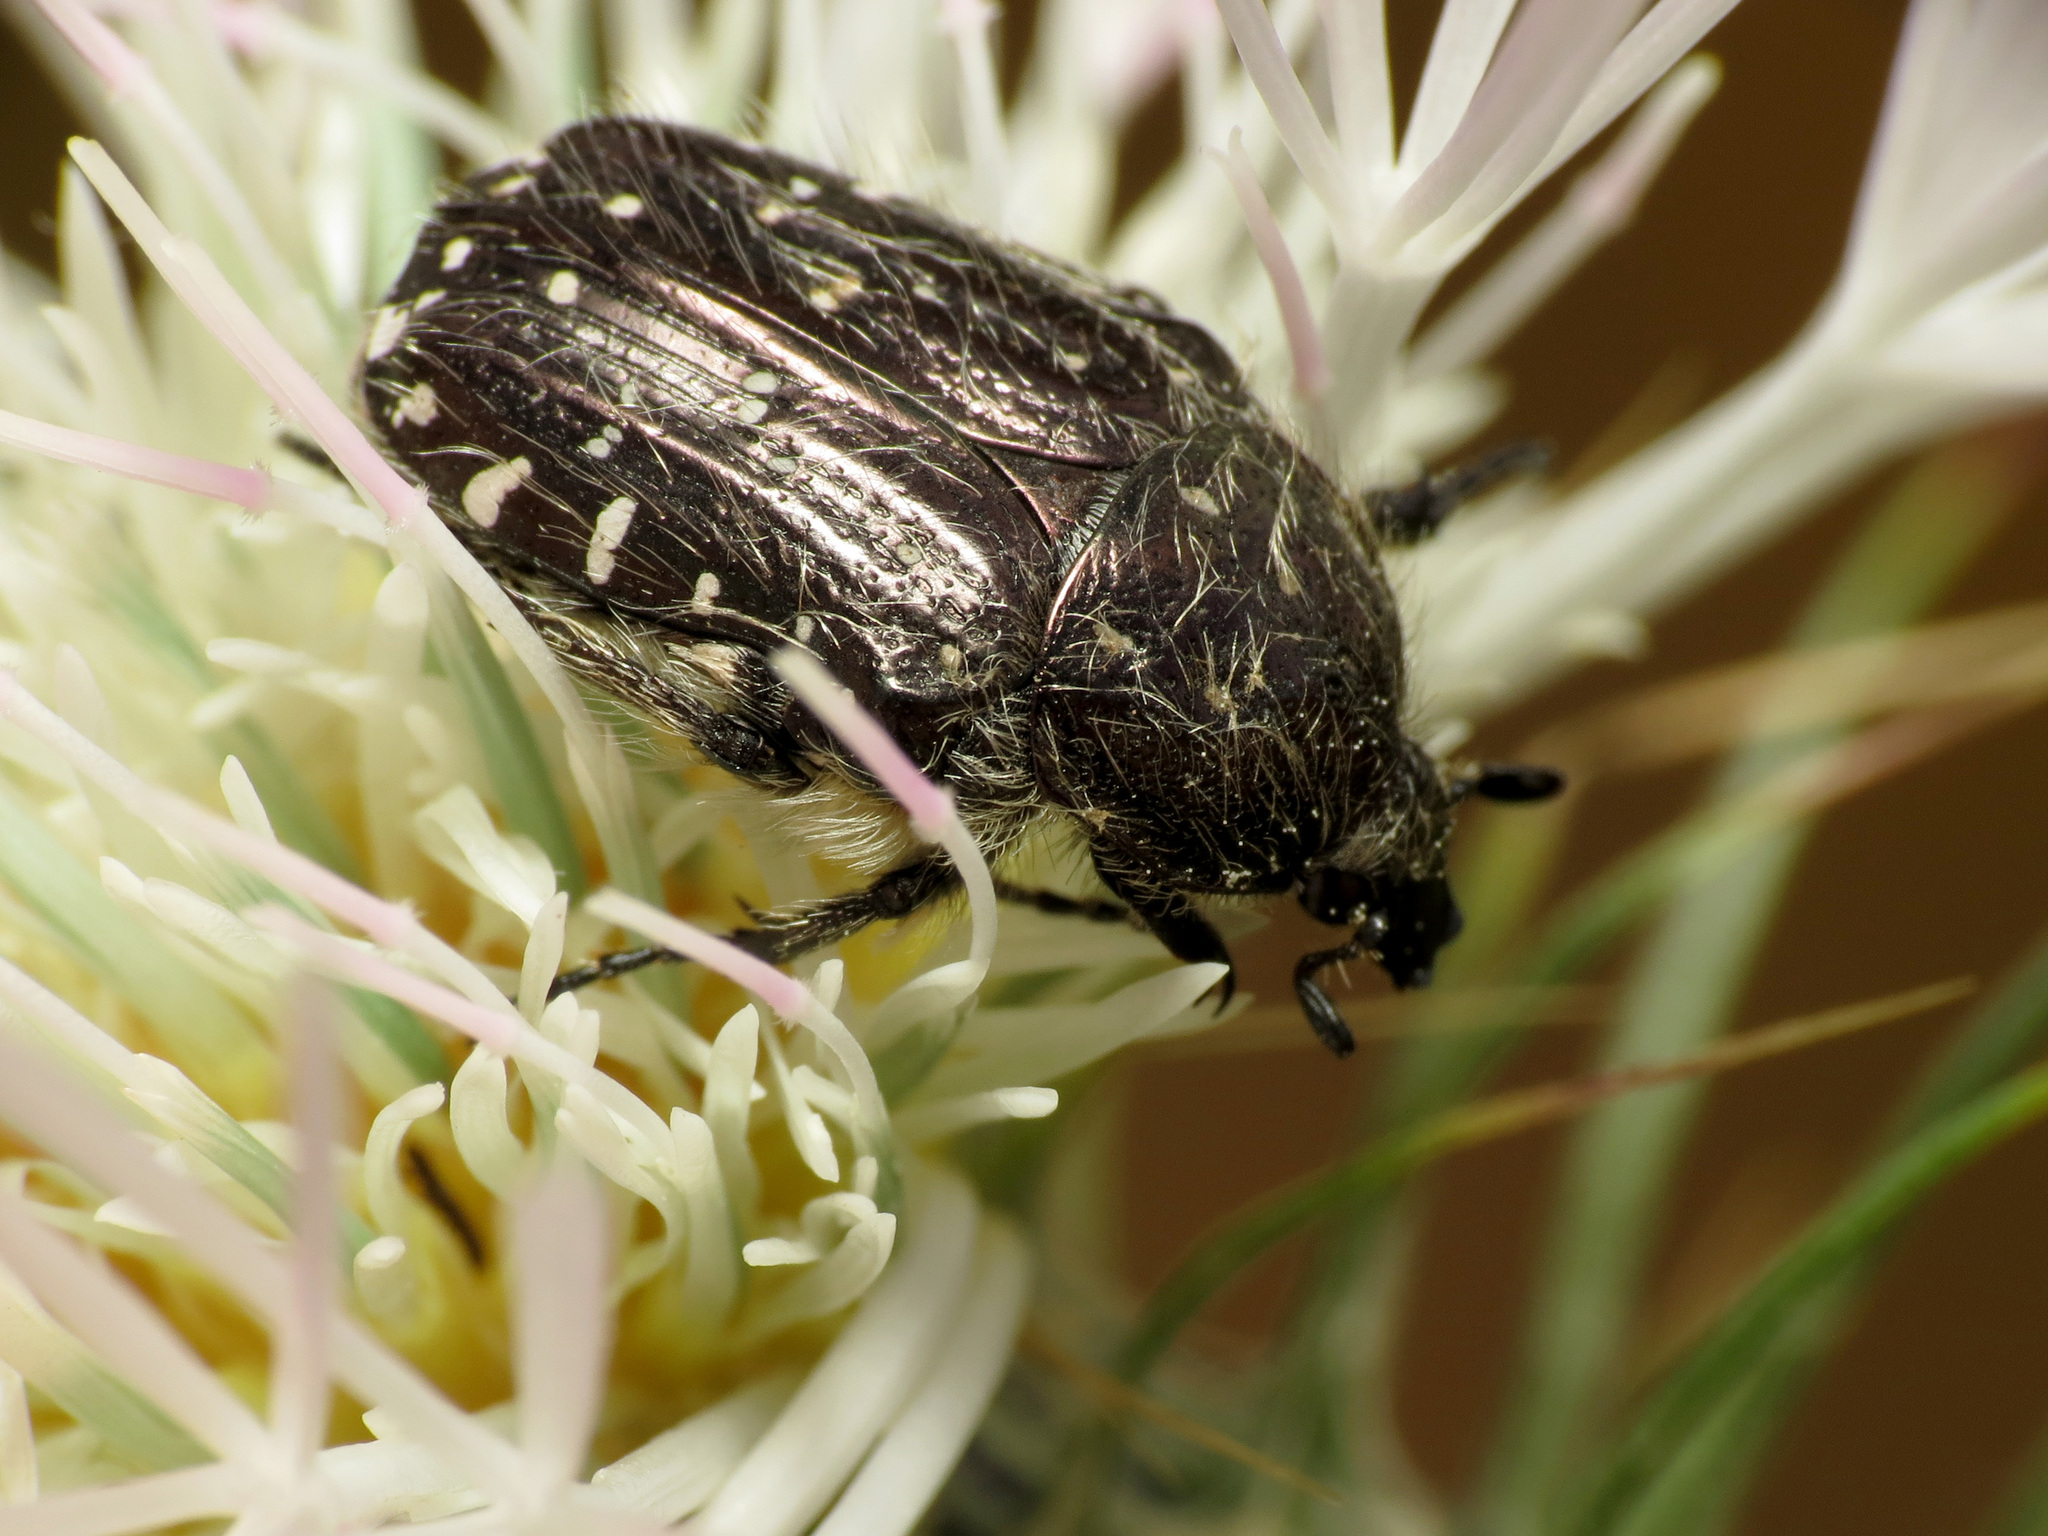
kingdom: Animalia
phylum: Arthropoda
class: Insecta
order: Coleoptera
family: Scarabaeidae
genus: Oxythyrea
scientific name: Oxythyrea funesta
